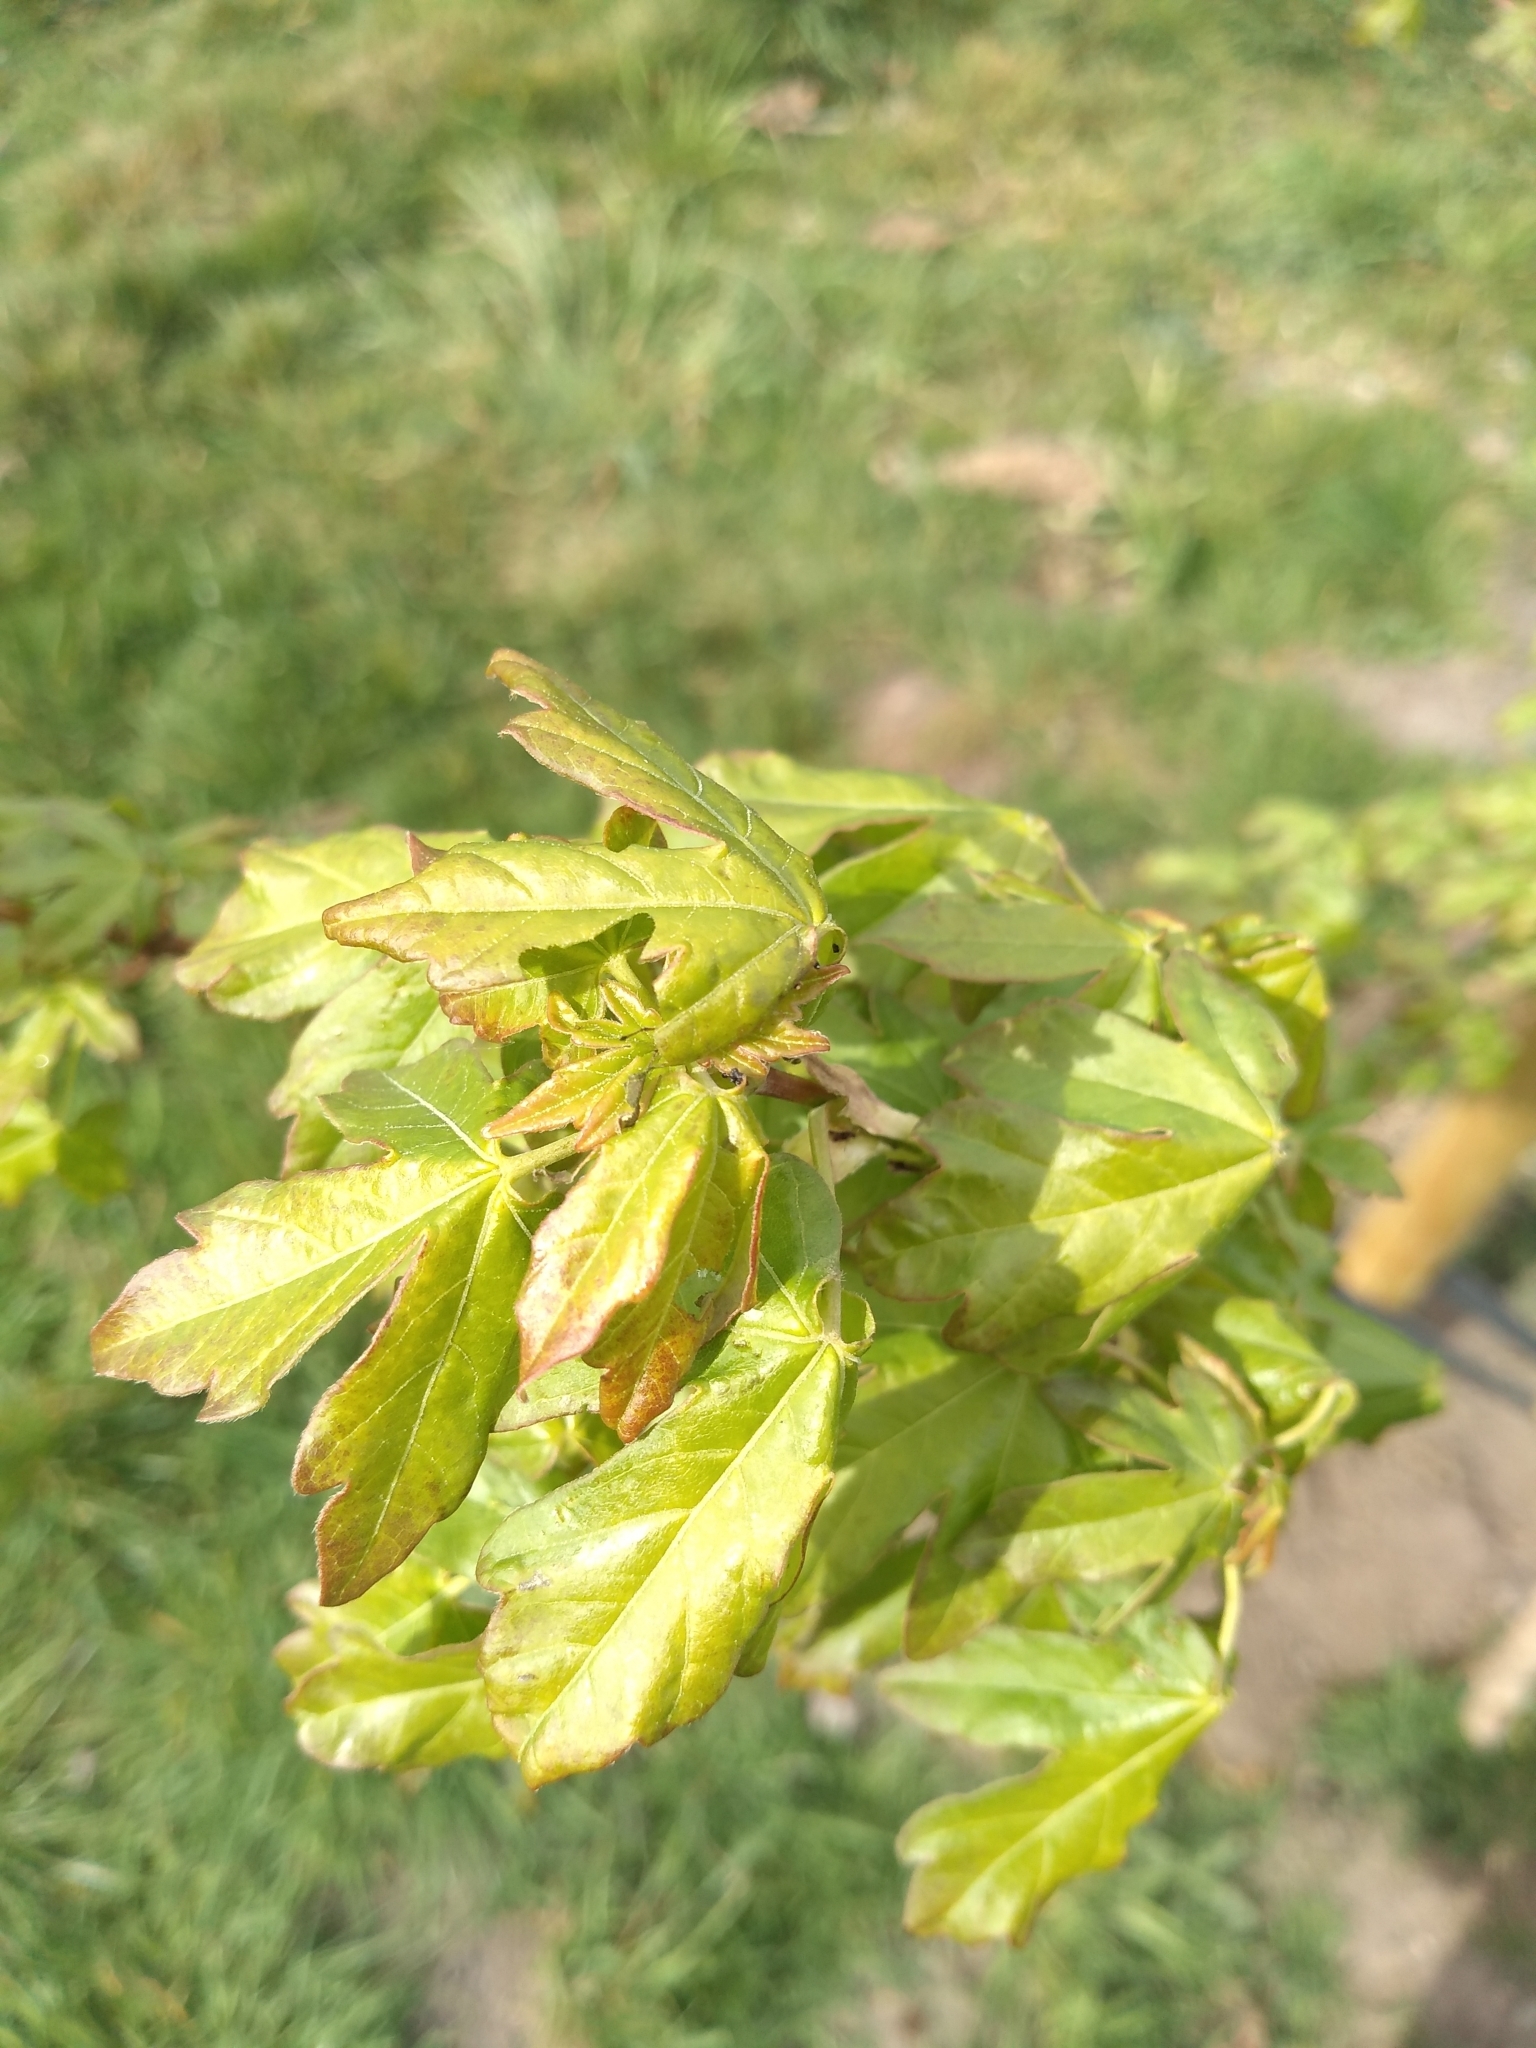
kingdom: Plantae
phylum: Tracheophyta
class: Magnoliopsida
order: Sapindales
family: Sapindaceae
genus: Acer
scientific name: Acer campestre
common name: Field maple
